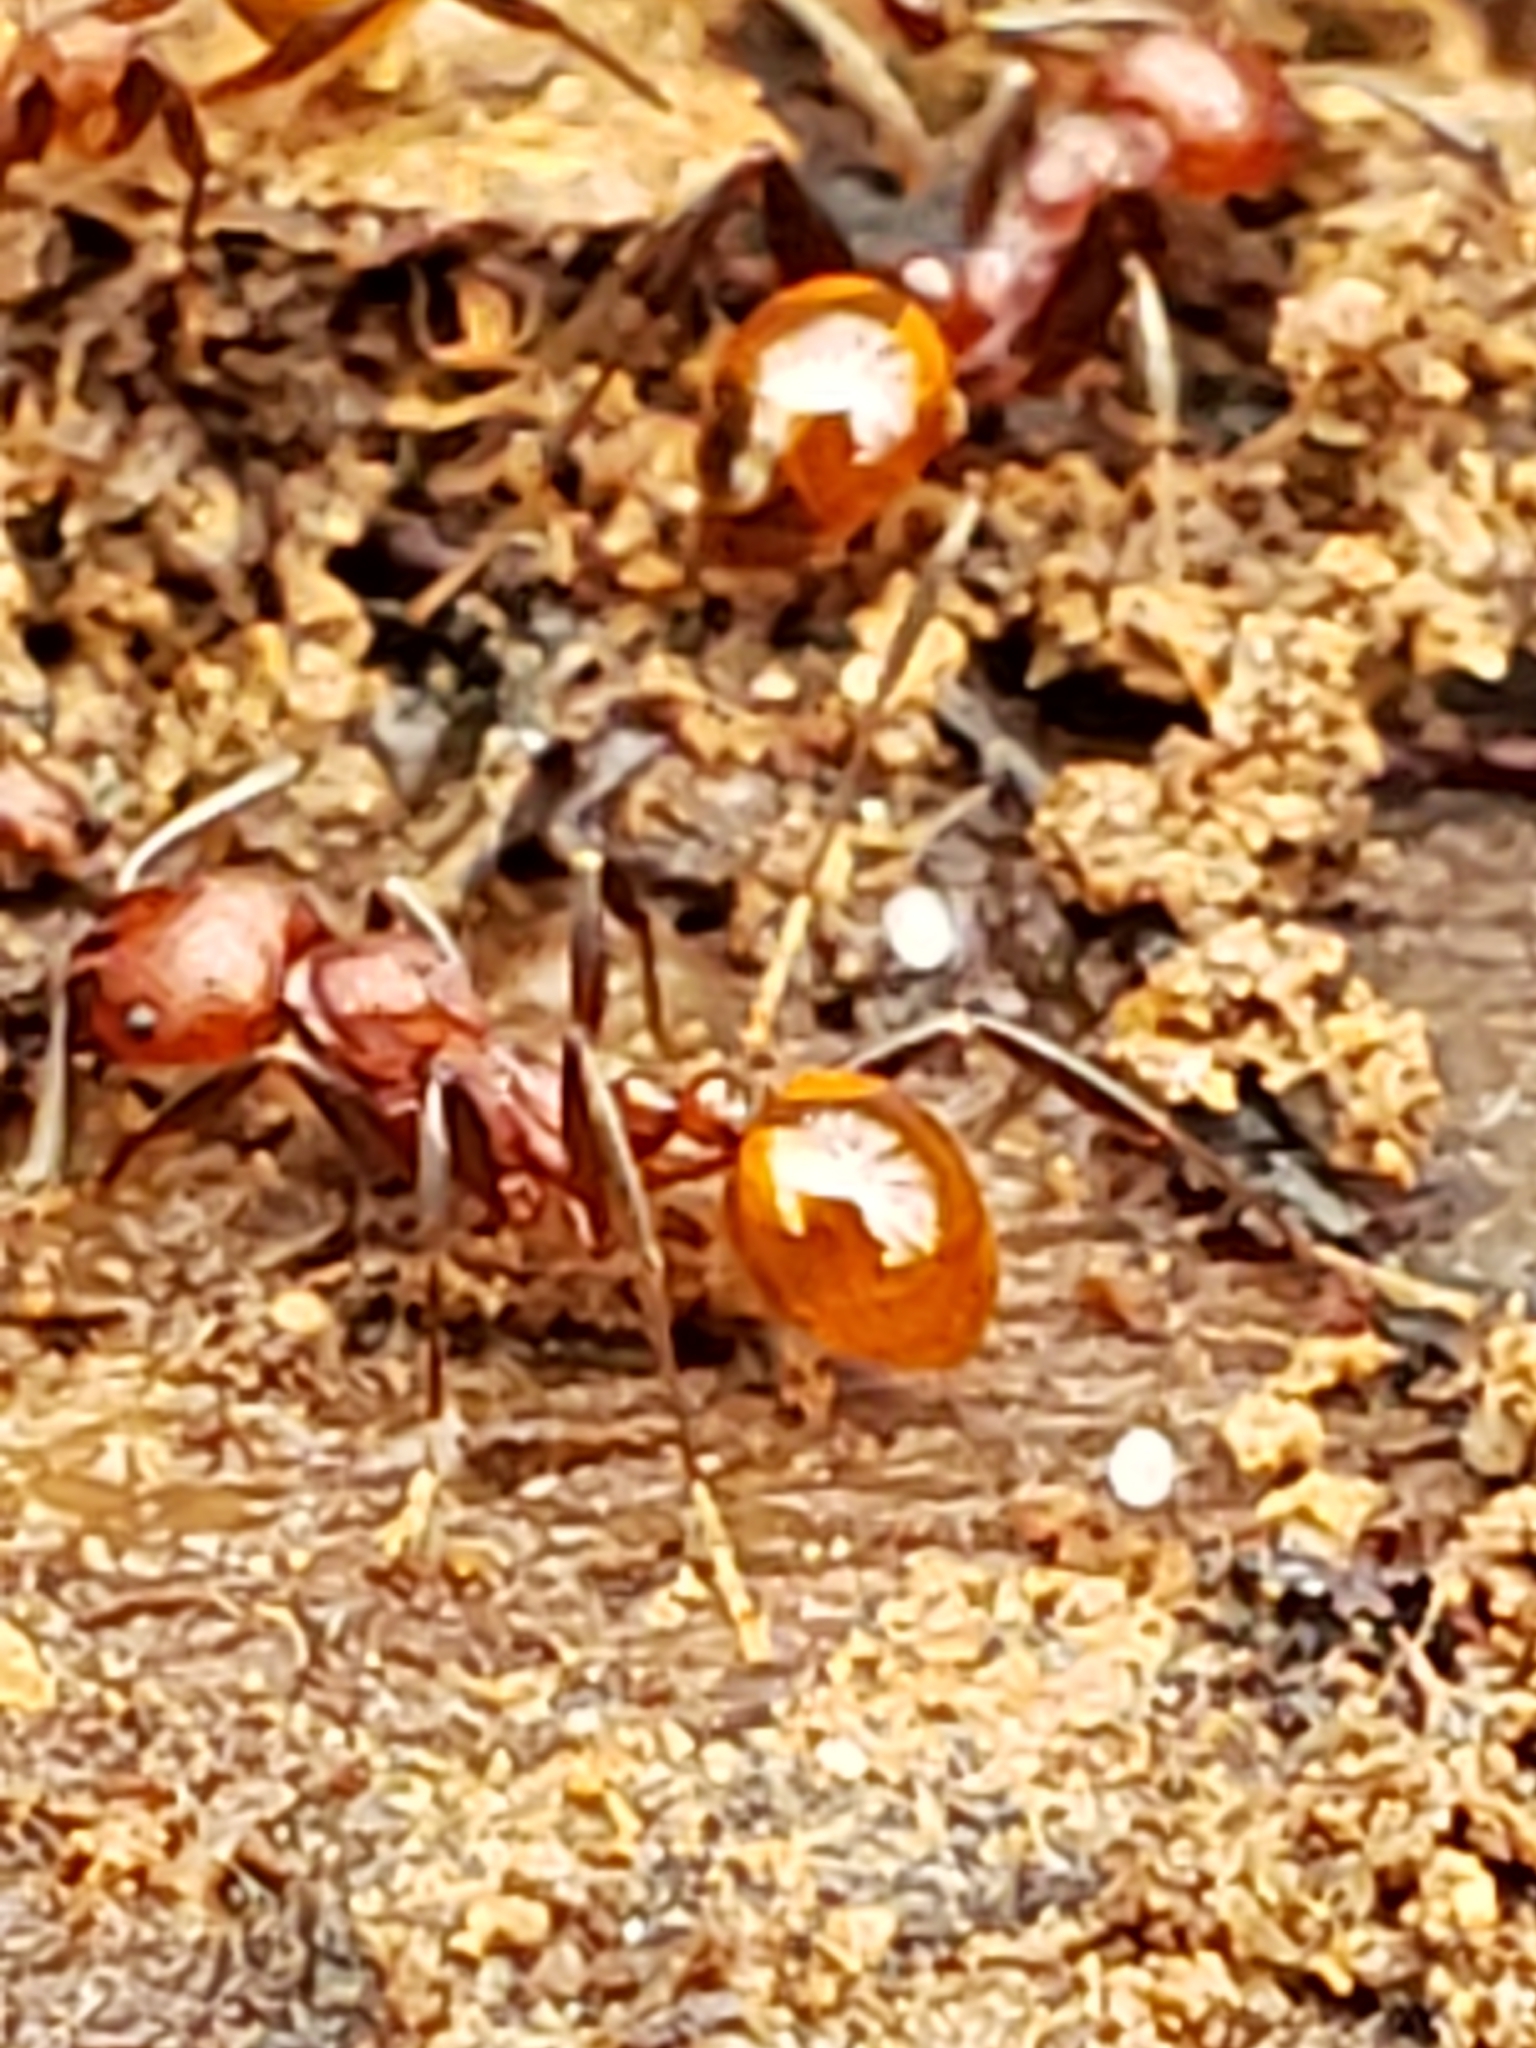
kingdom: Animalia
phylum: Arthropoda
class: Insecta
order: Hymenoptera
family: Formicidae
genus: Aphaenogaster
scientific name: Aphaenogaster tennesseensis
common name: Tennessee thread-waisted ant
